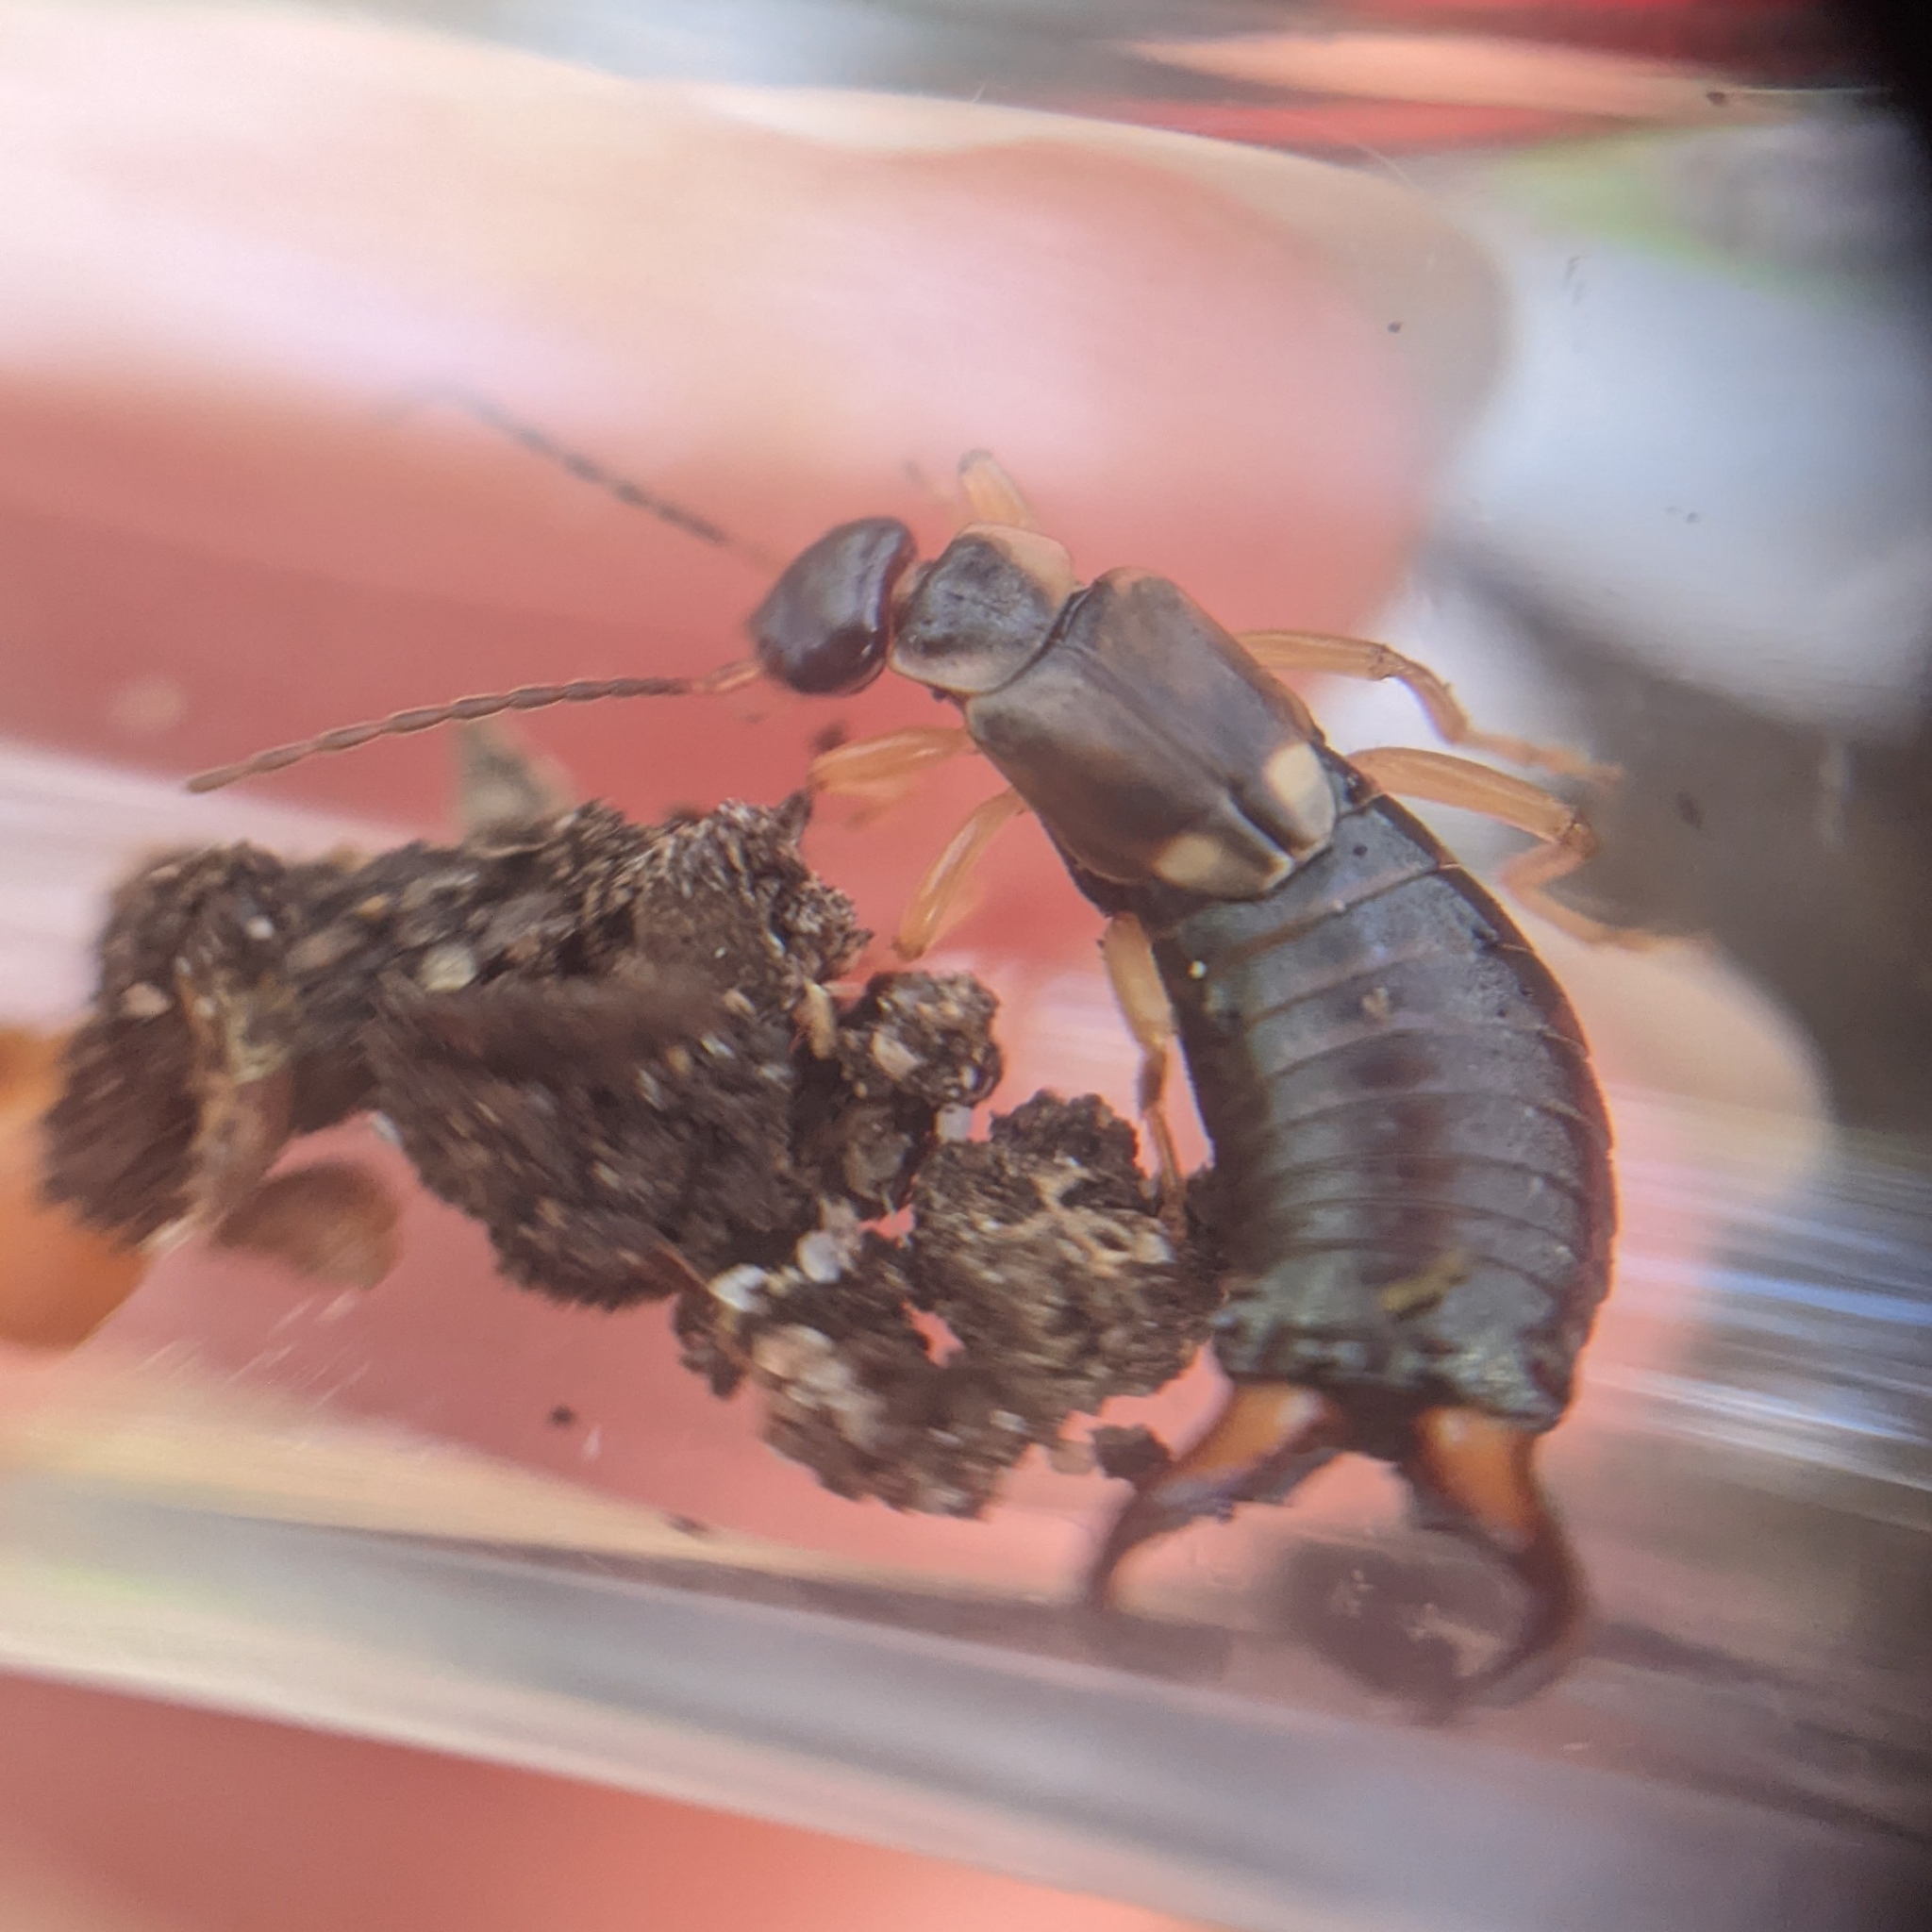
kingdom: Animalia
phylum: Arthropoda
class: Insecta
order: Dermaptera
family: Forficulidae
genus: Forficula
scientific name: Forficula
